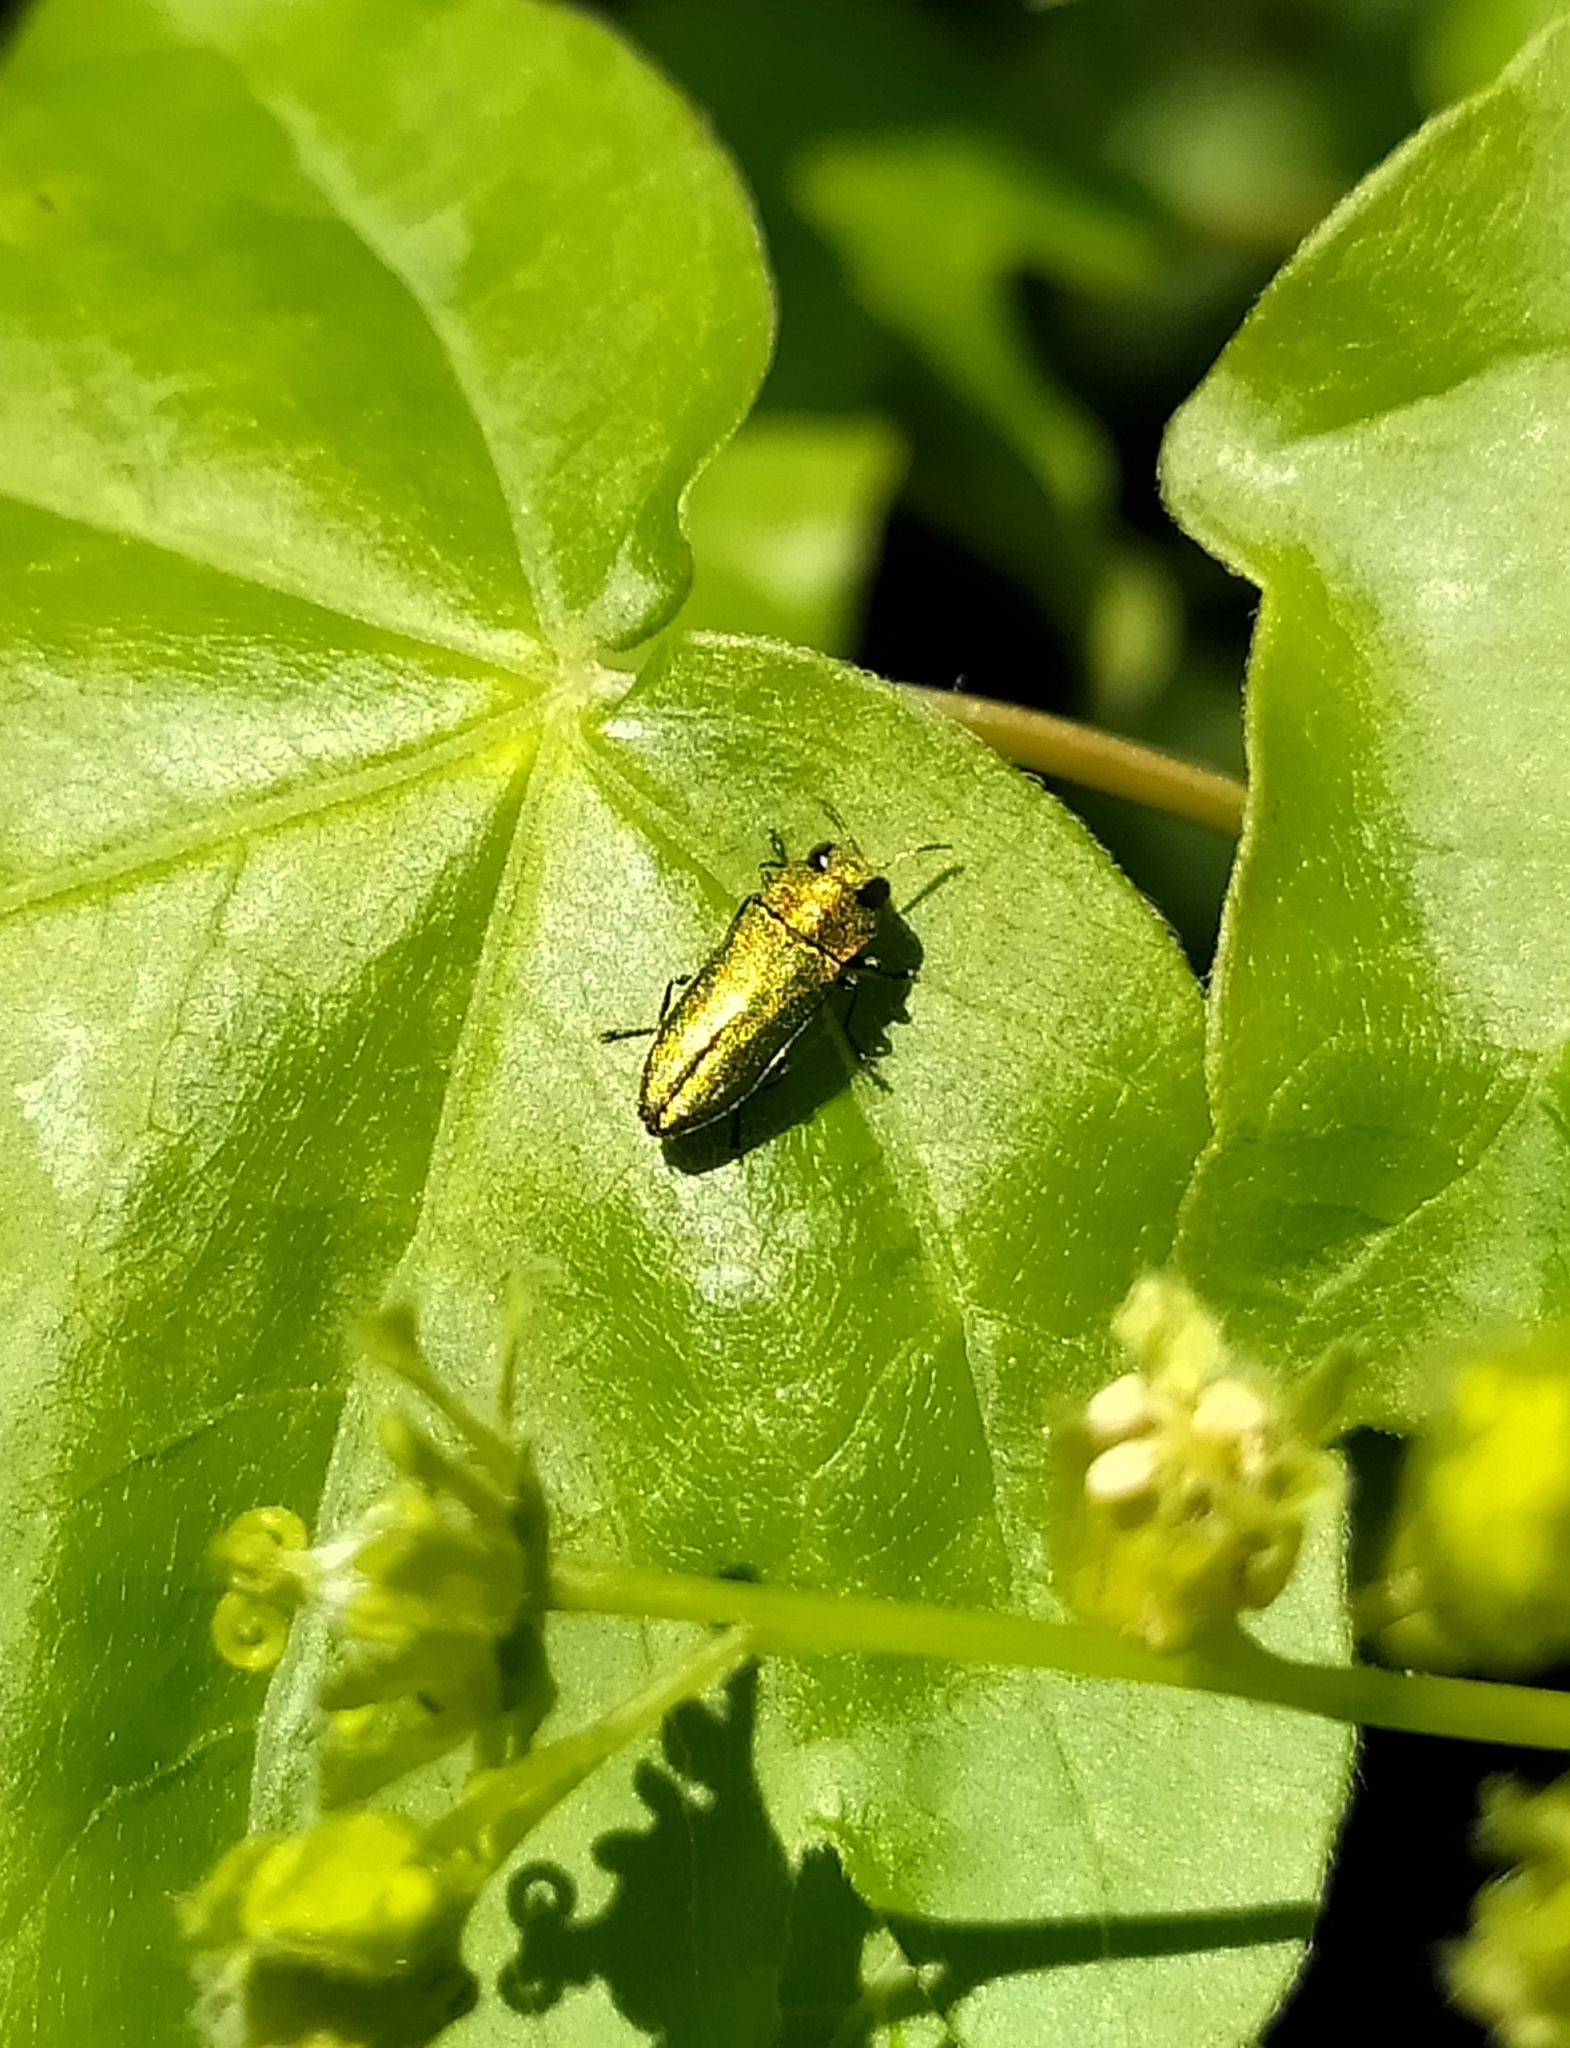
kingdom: Animalia
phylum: Arthropoda
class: Insecta
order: Coleoptera
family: Buprestidae
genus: Anthaxia
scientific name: Anthaxia nitidula
